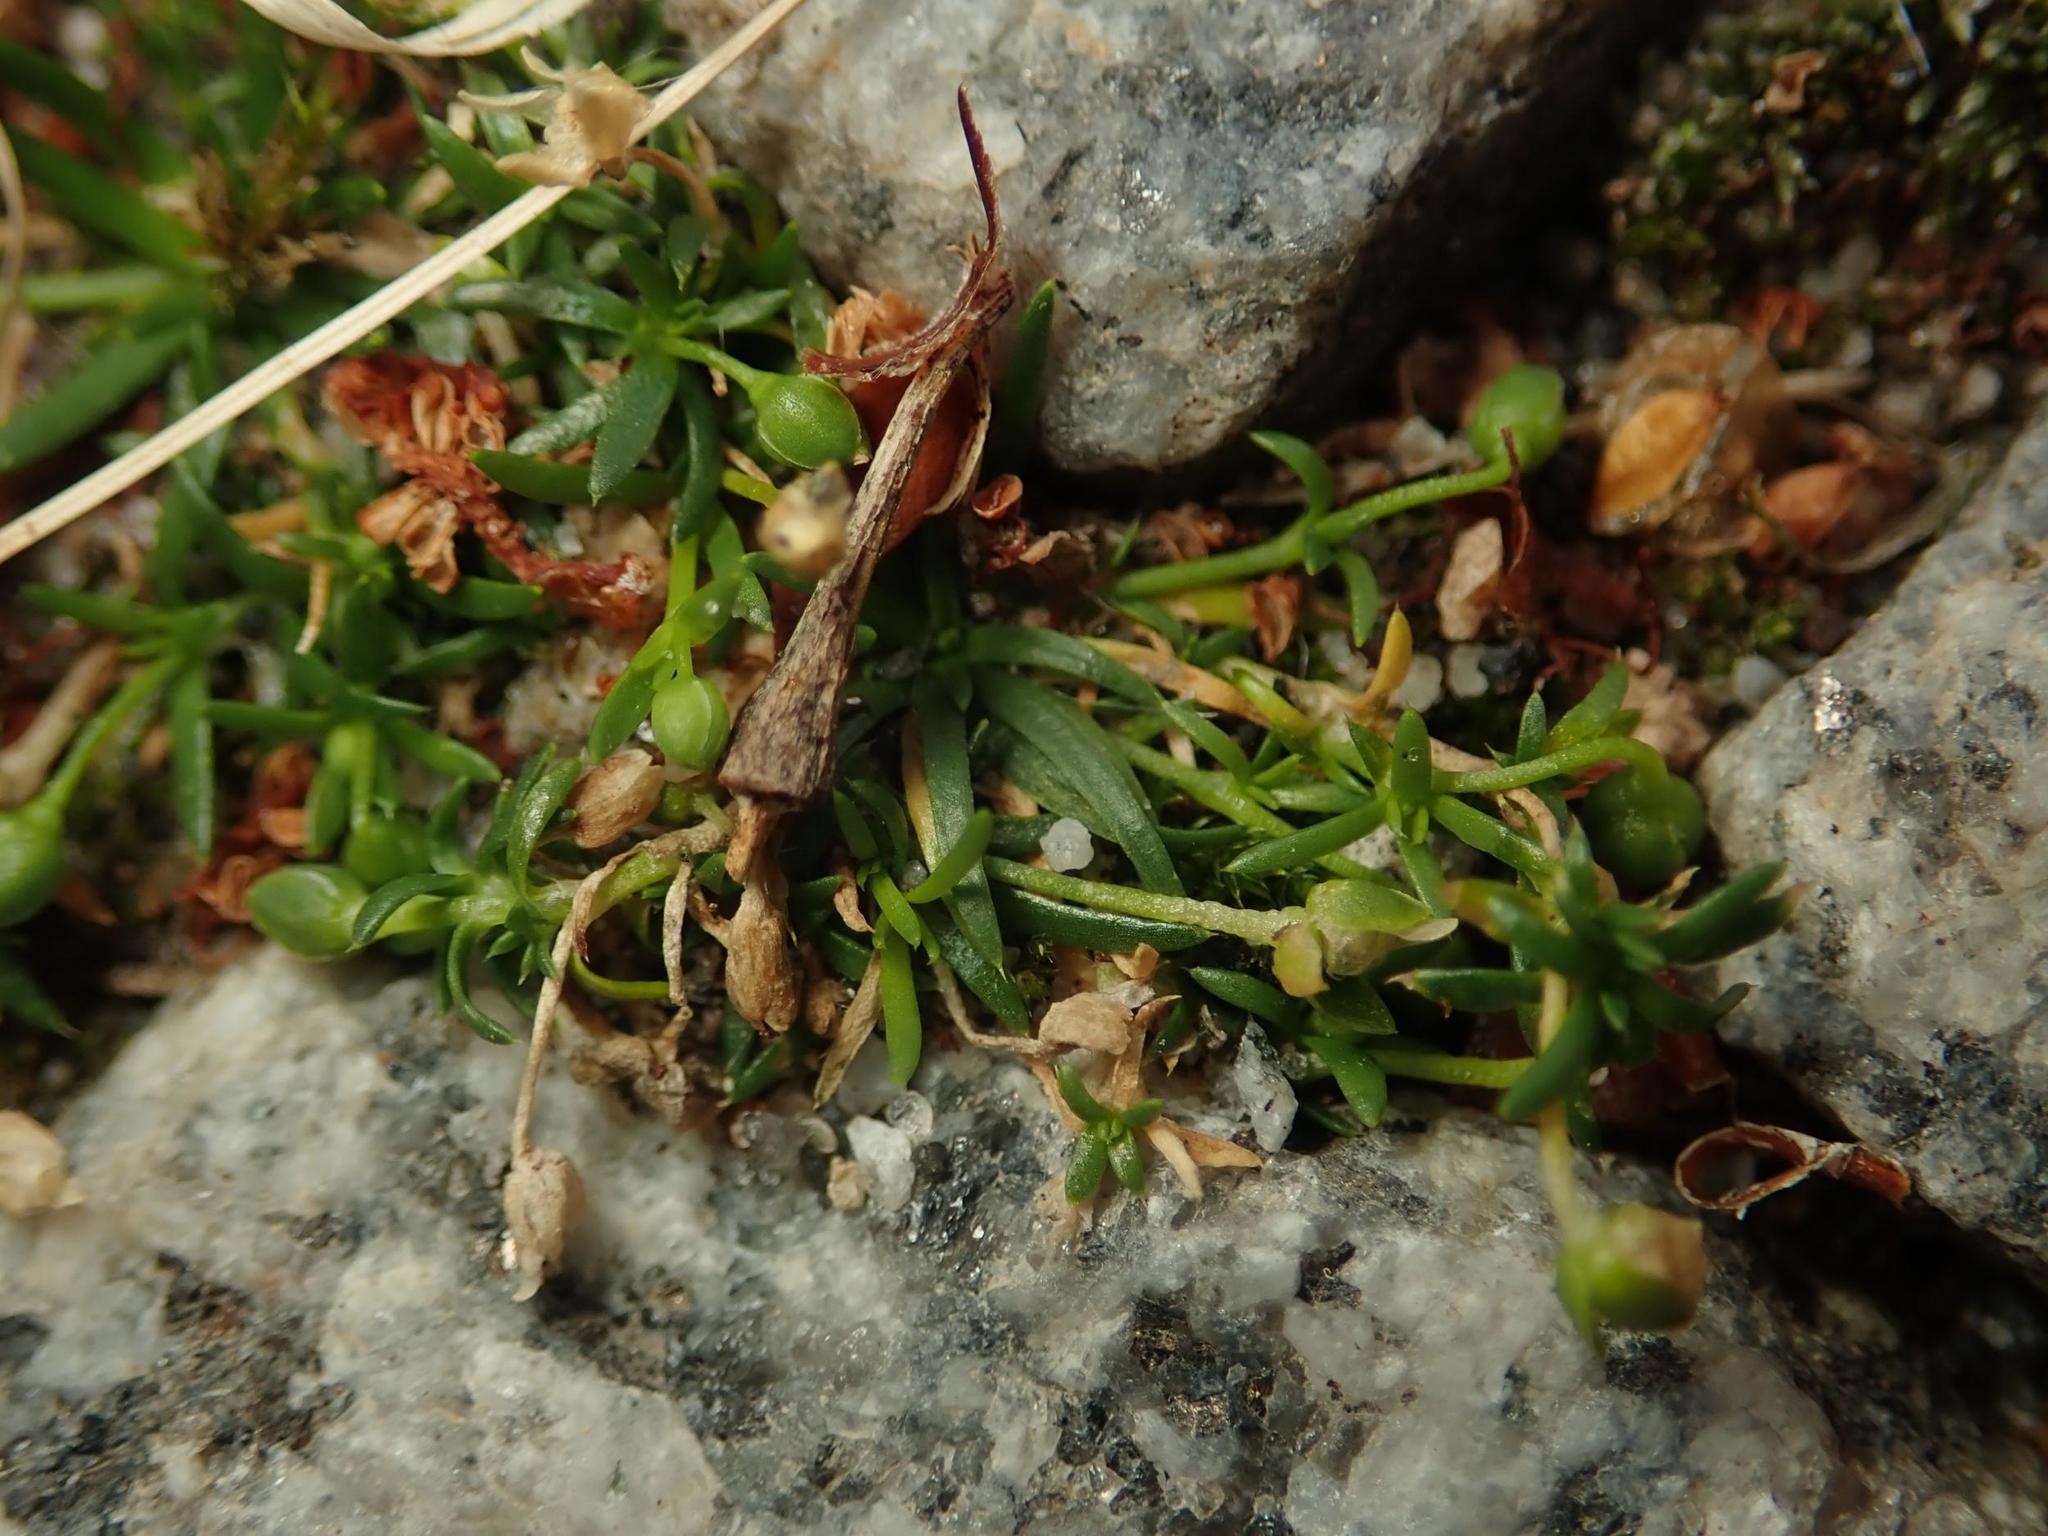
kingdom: Plantae
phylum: Tracheophyta
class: Magnoliopsida
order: Caryophyllales
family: Caryophyllaceae
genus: Sagina
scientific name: Sagina procumbens
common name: Procumbent pearlwort
